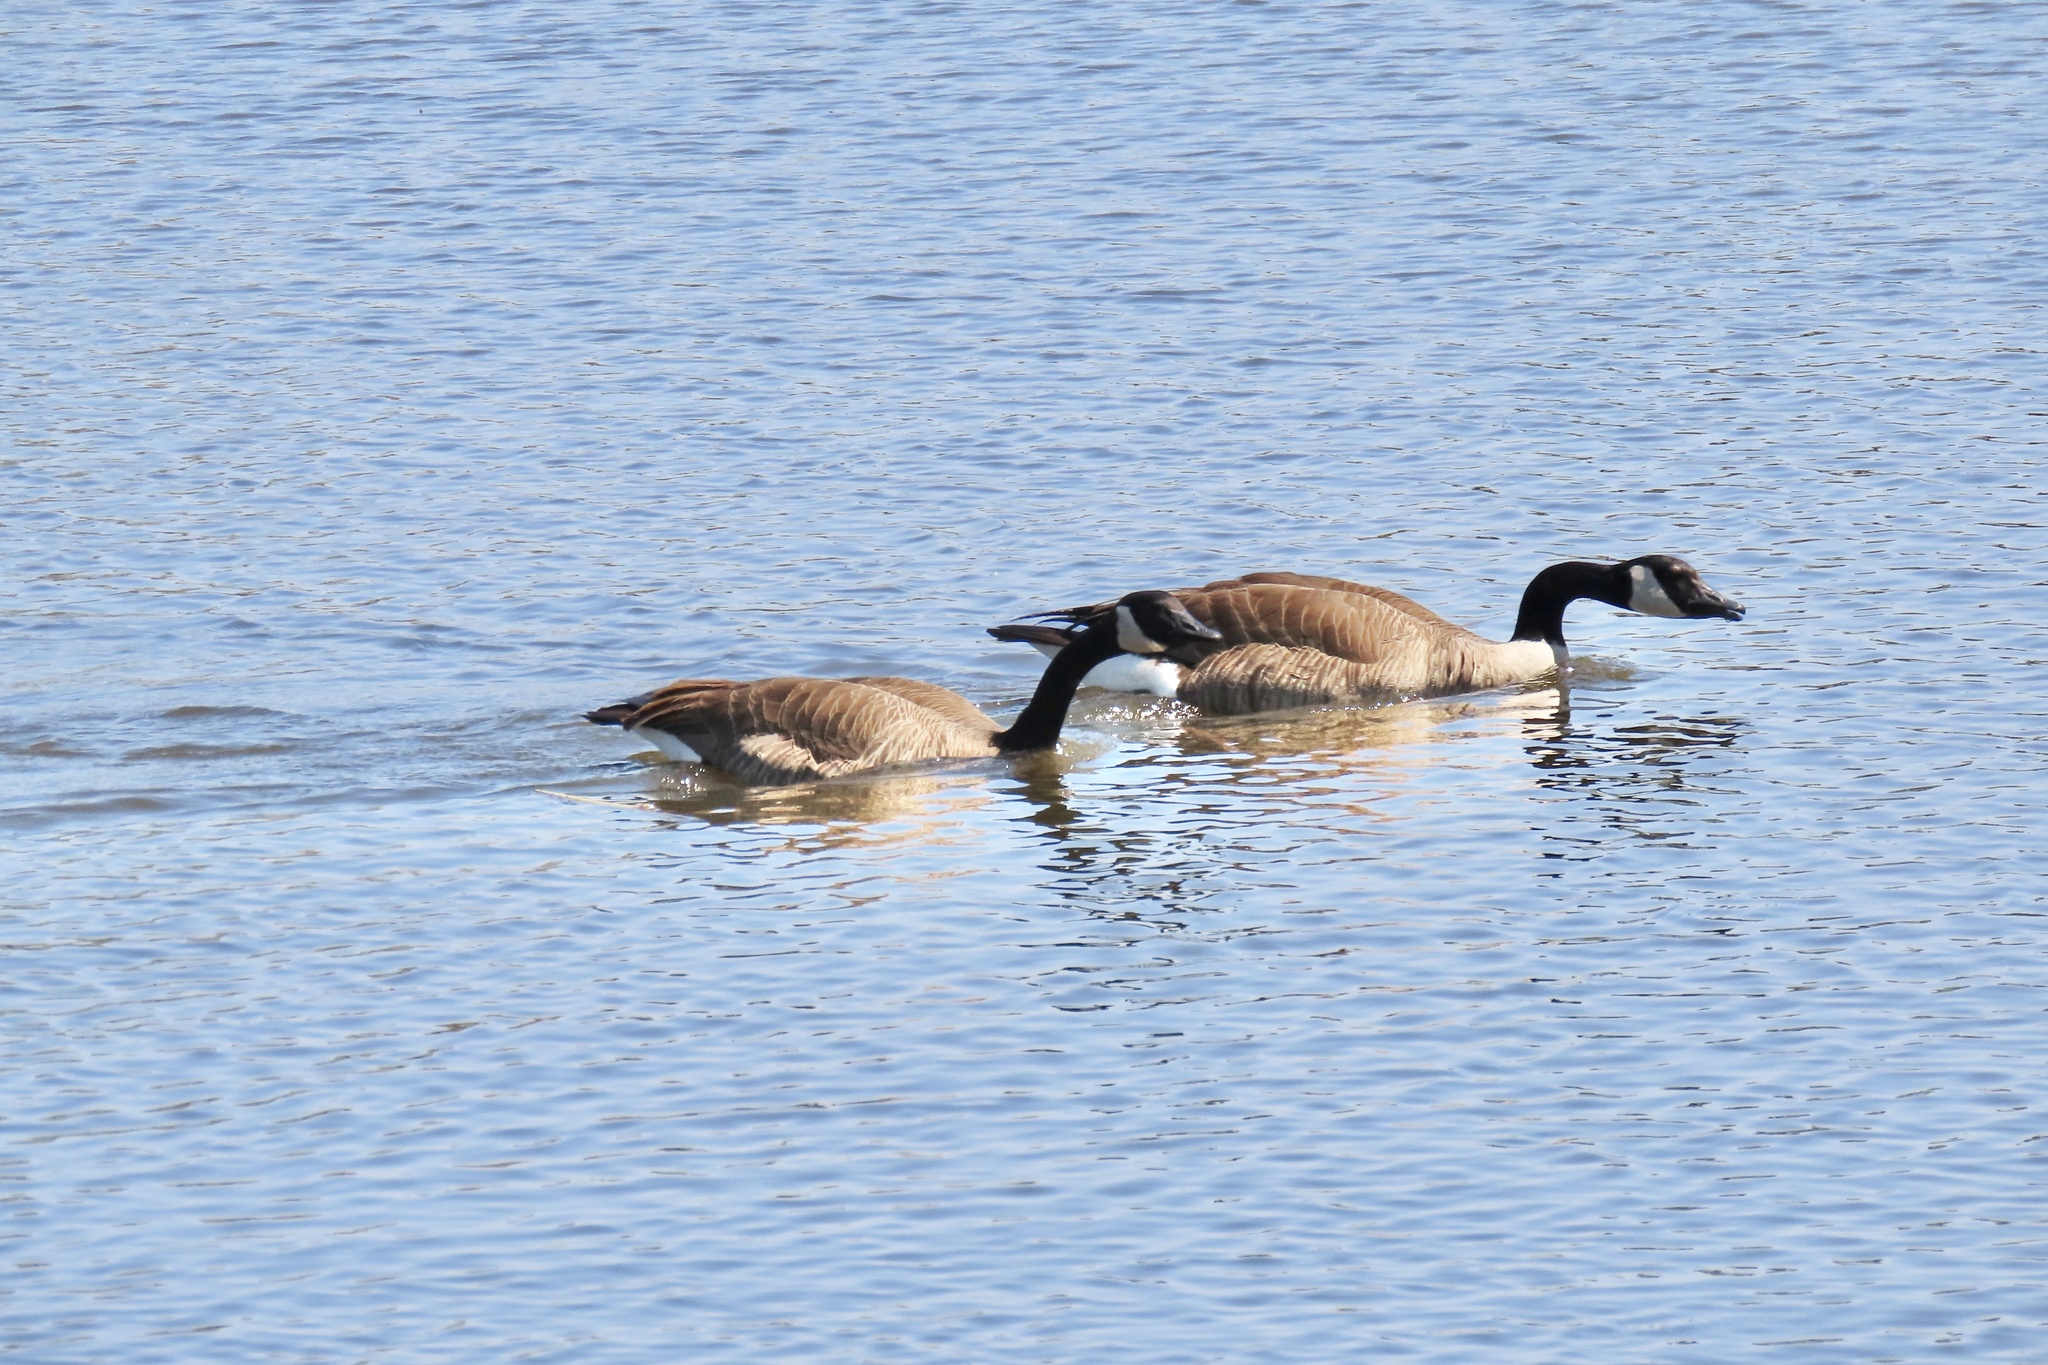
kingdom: Animalia
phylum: Chordata
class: Aves
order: Anseriformes
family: Anatidae
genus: Branta
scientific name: Branta canadensis
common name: Canada goose
